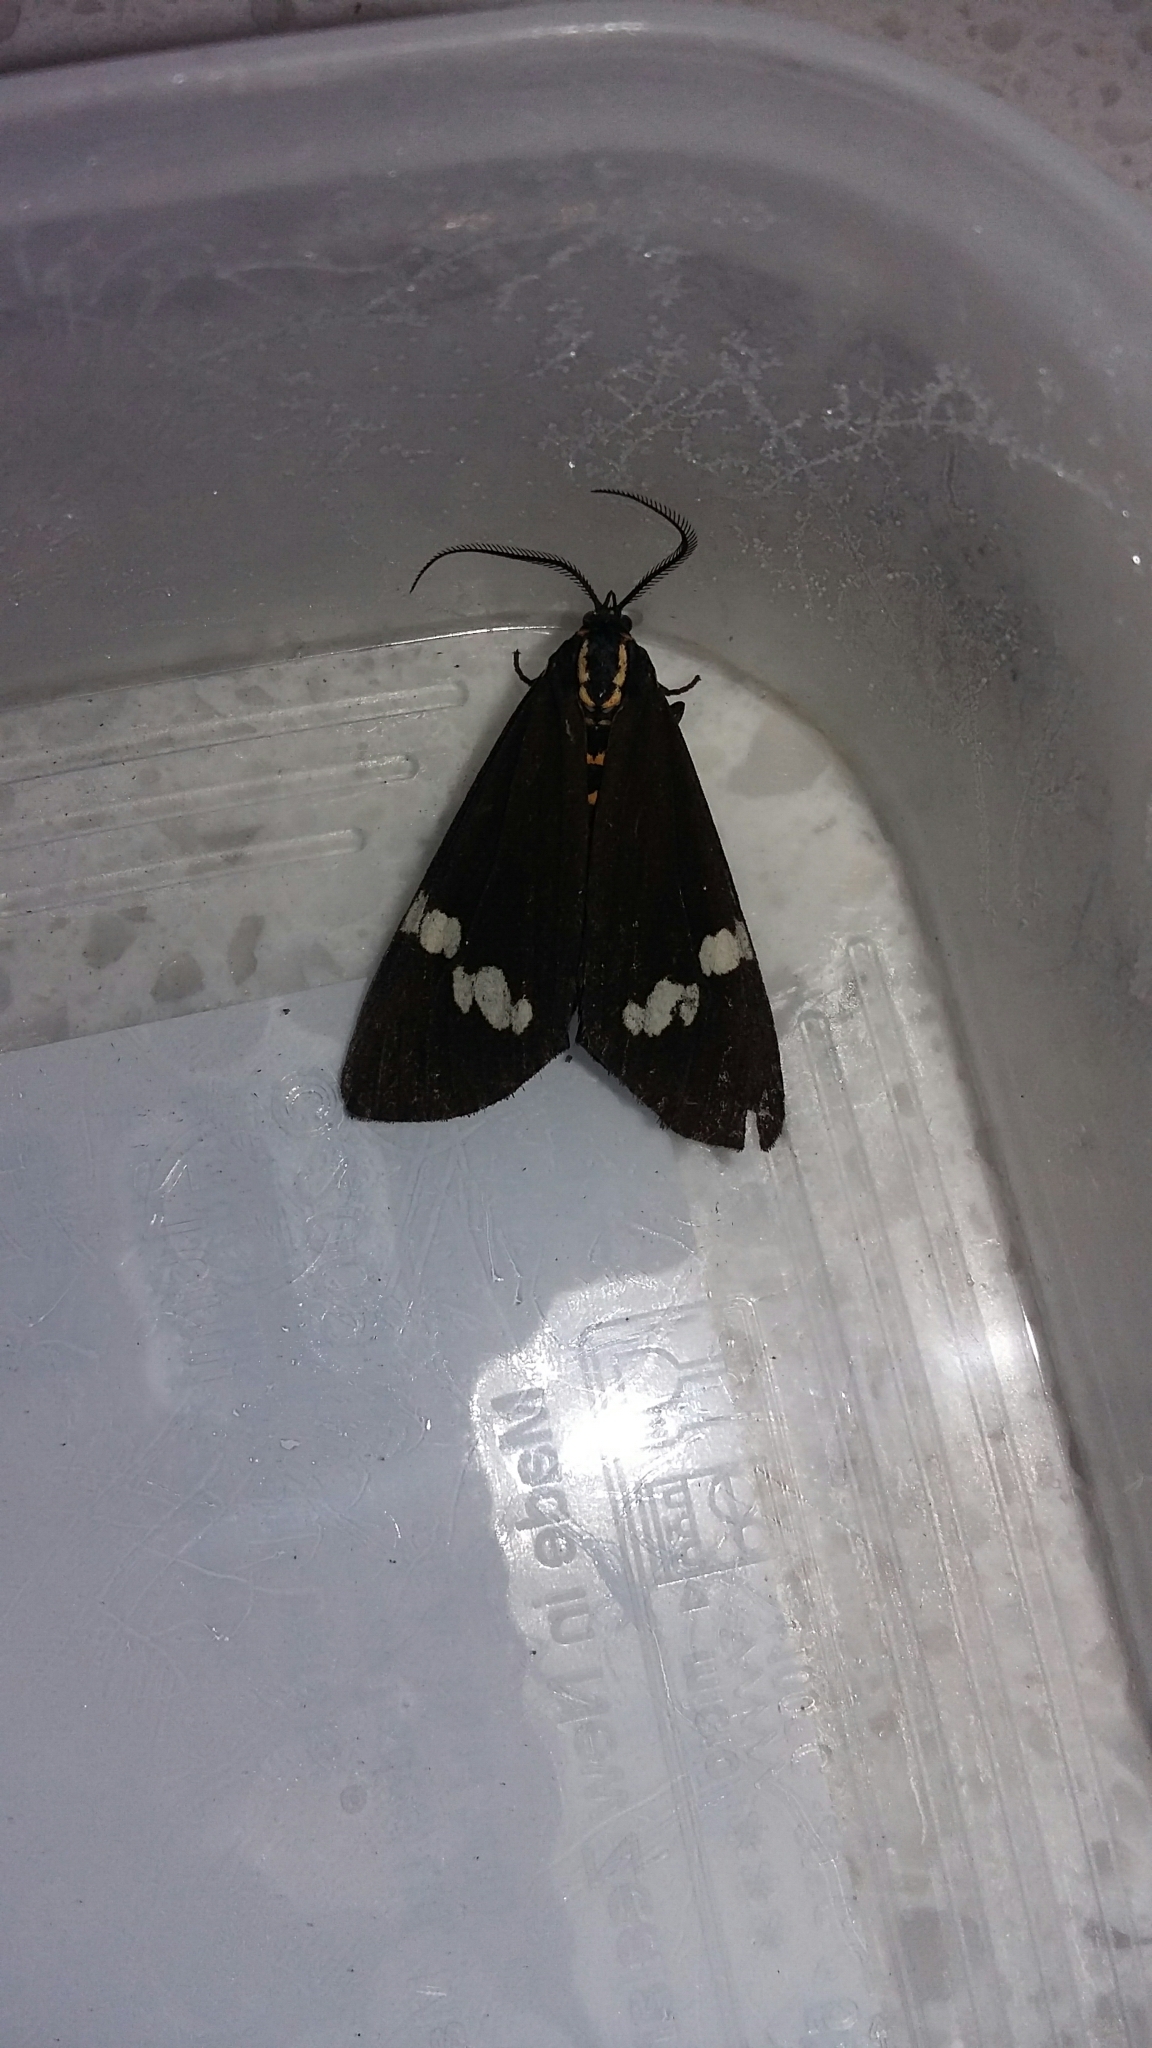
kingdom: Animalia
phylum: Arthropoda
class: Insecta
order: Lepidoptera
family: Erebidae
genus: Nyctemera
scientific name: Nyctemera annulatum
